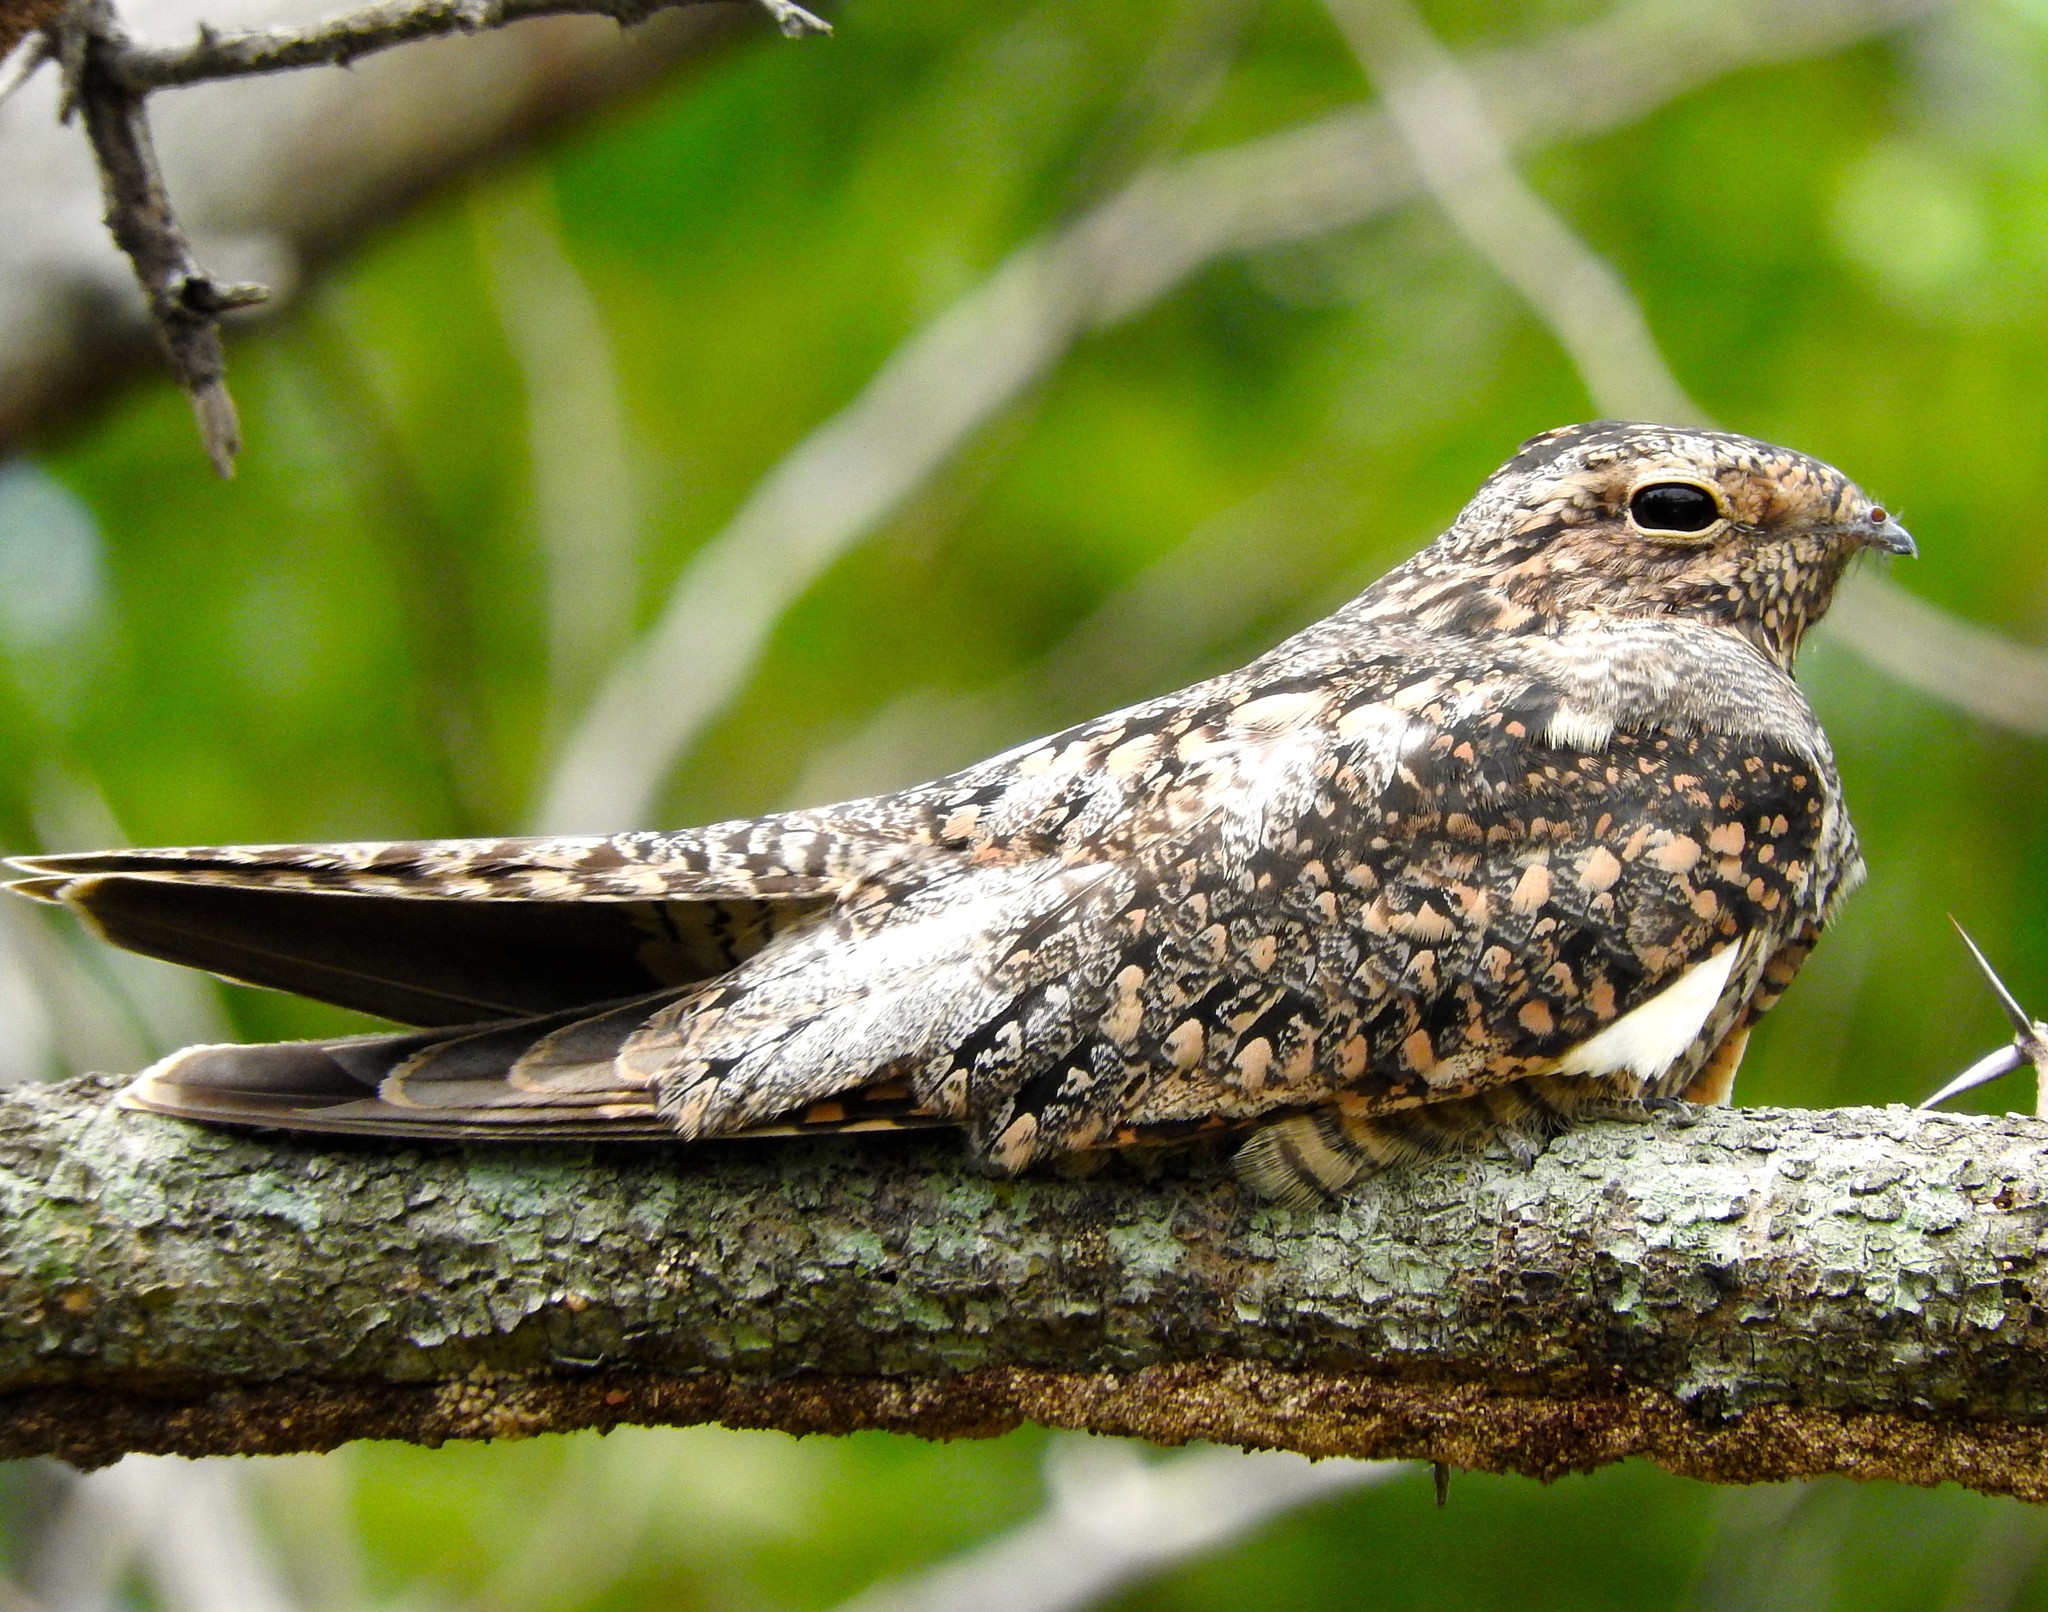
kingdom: Animalia
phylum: Chordata
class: Aves
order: Caprimulgiformes
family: Caprimulgidae
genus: Chordeiles
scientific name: Chordeiles
